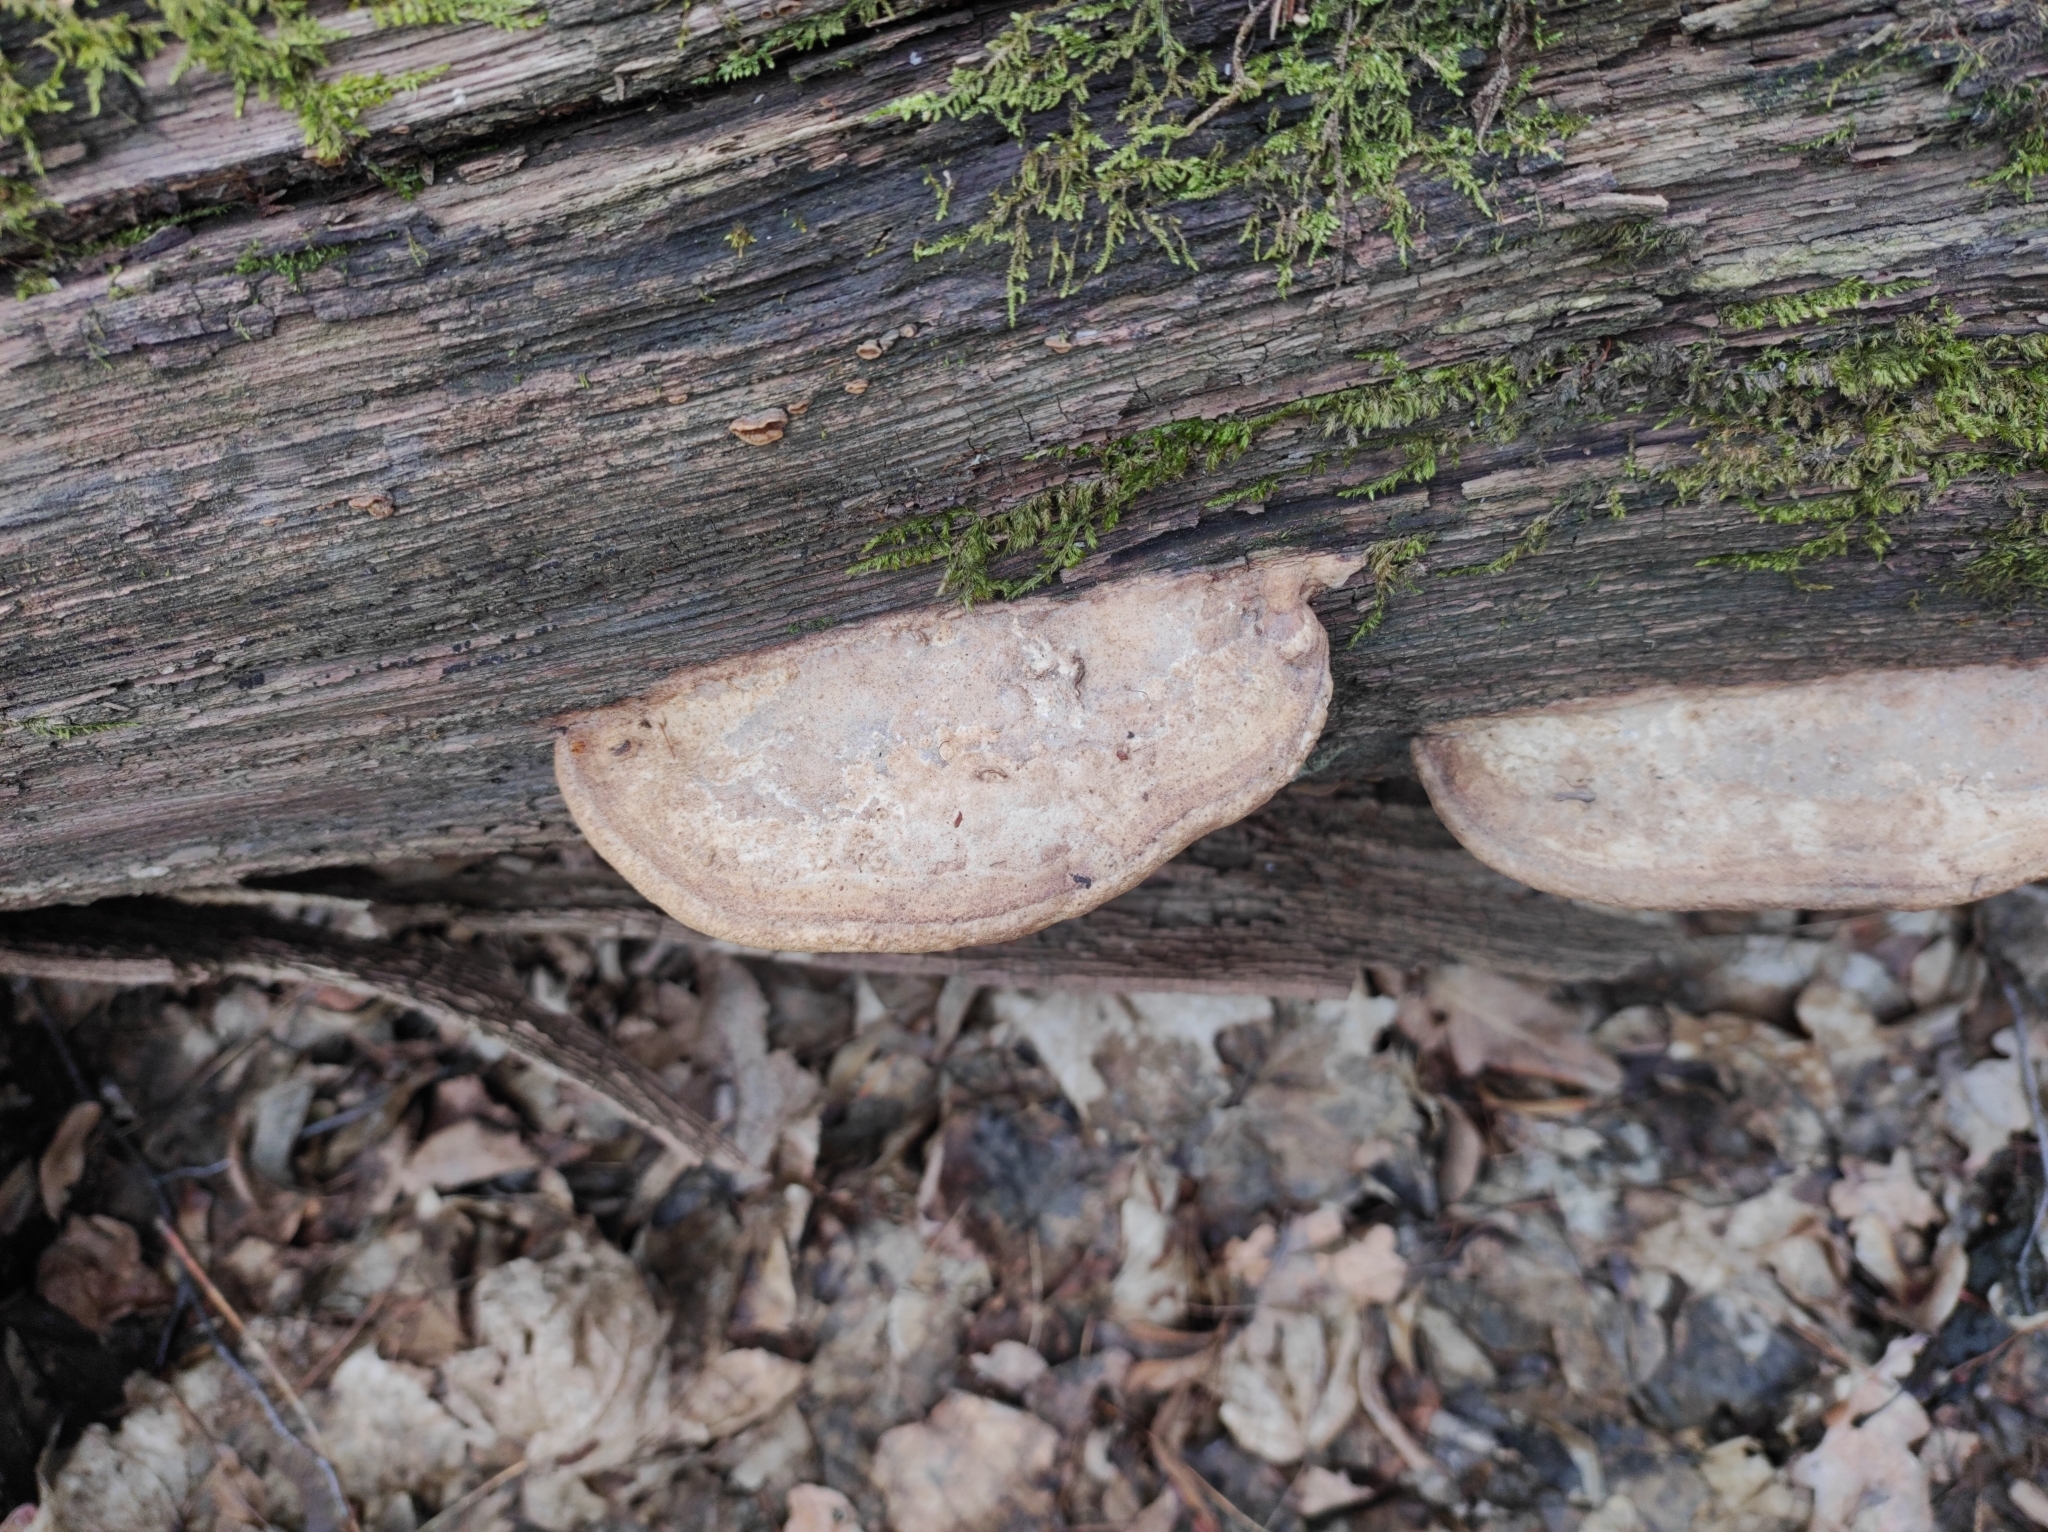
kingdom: Fungi
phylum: Basidiomycota
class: Agaricomycetes
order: Polyporales
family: Fomitopsidaceae
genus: Fomitopsis
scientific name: Fomitopsis
